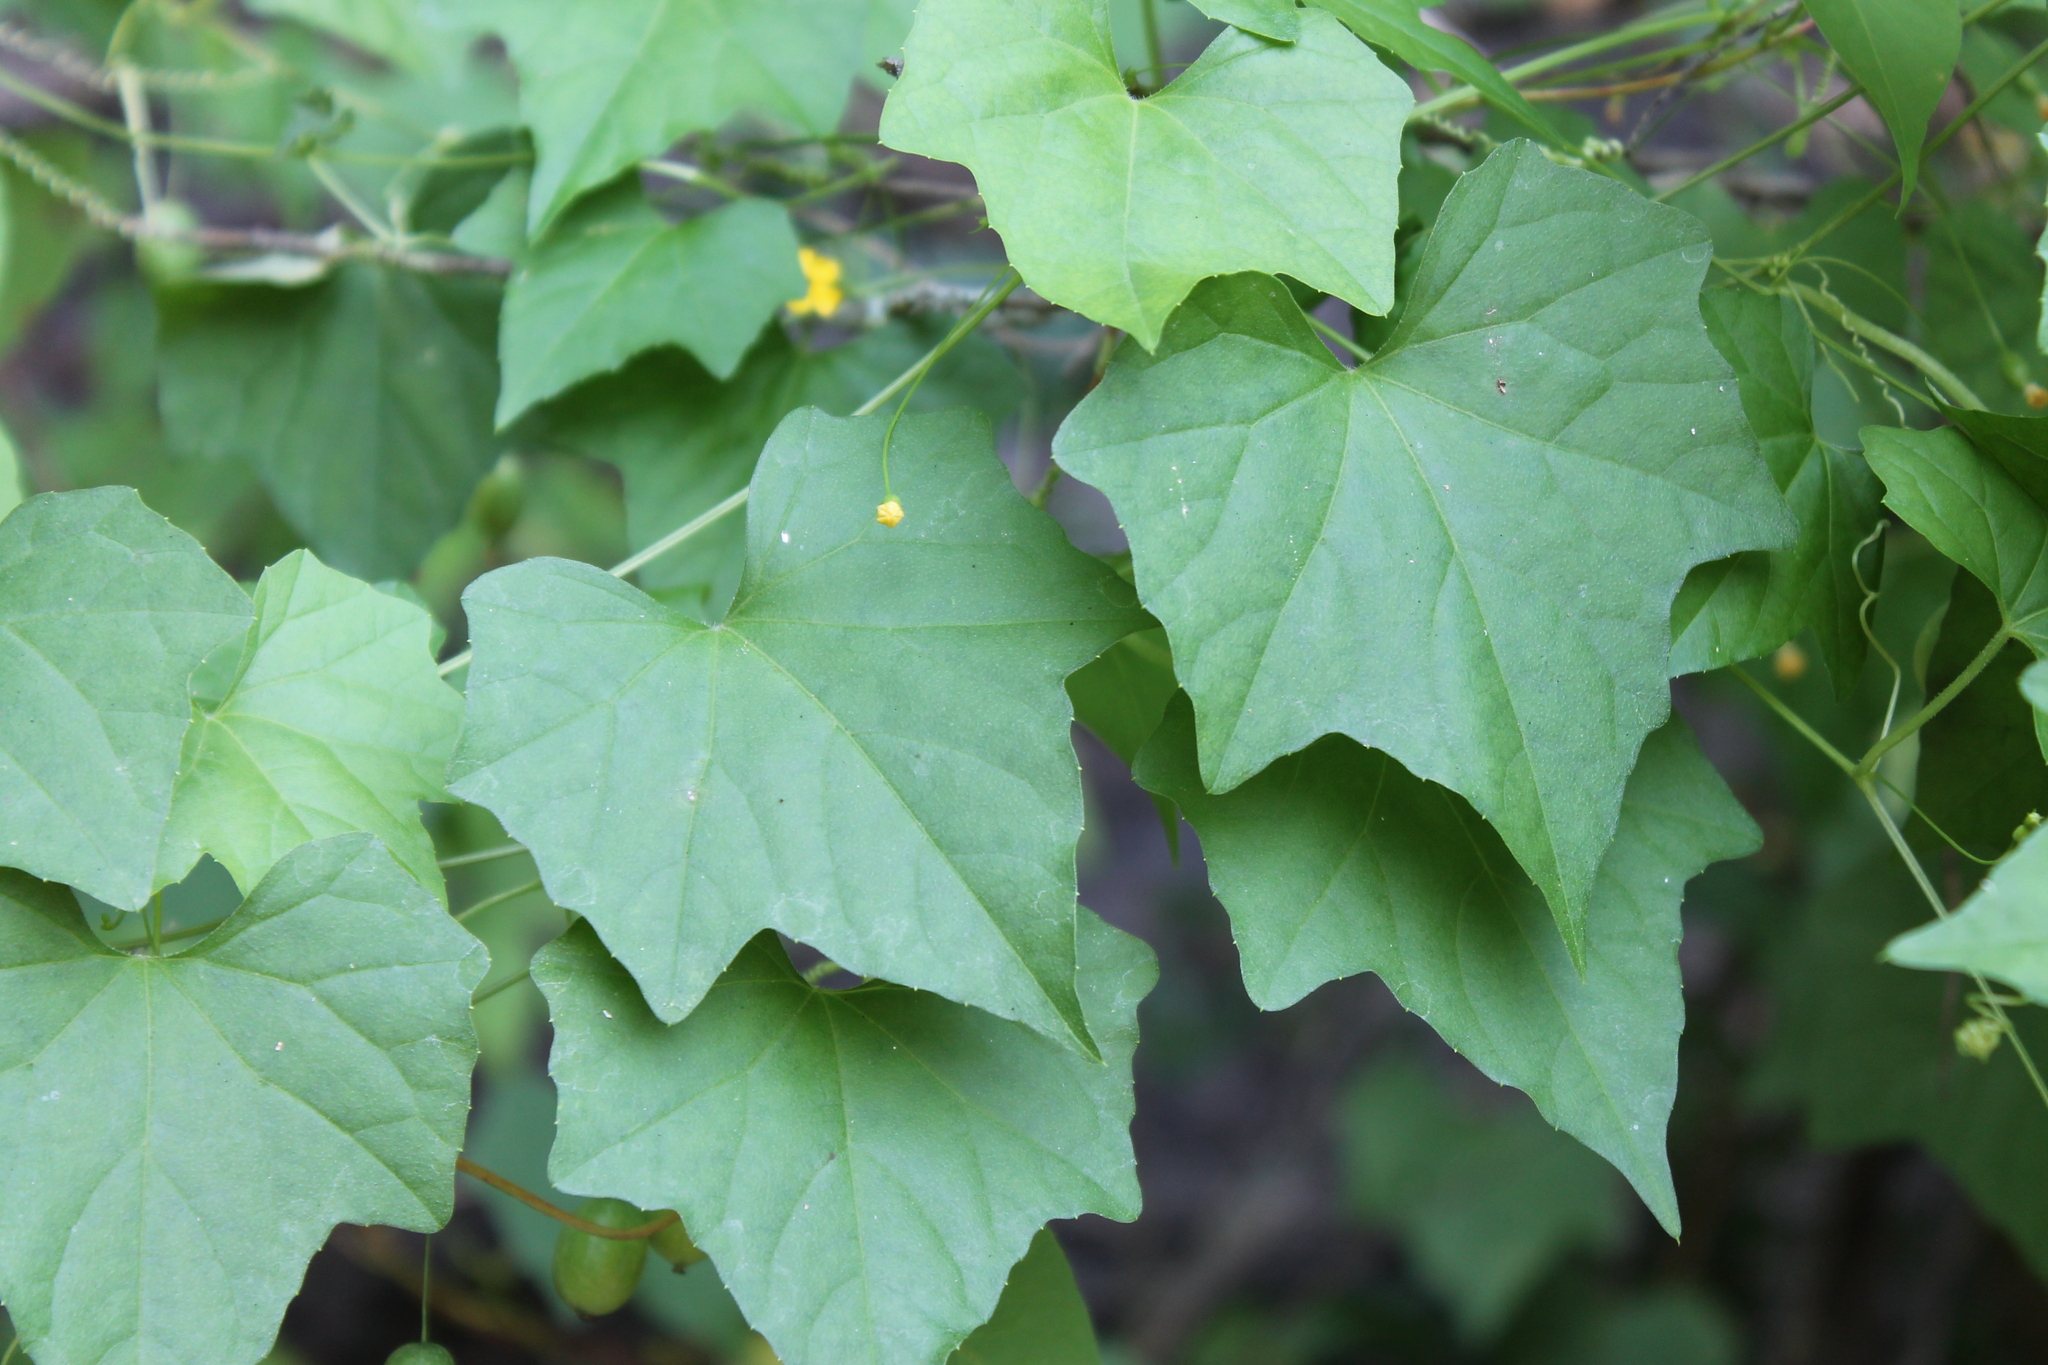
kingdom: Plantae
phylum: Tracheophyta
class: Magnoliopsida
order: Cucurbitales
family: Cucurbitaceae
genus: Melothria
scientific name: Melothria pendula
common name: Creeping-cucumber
